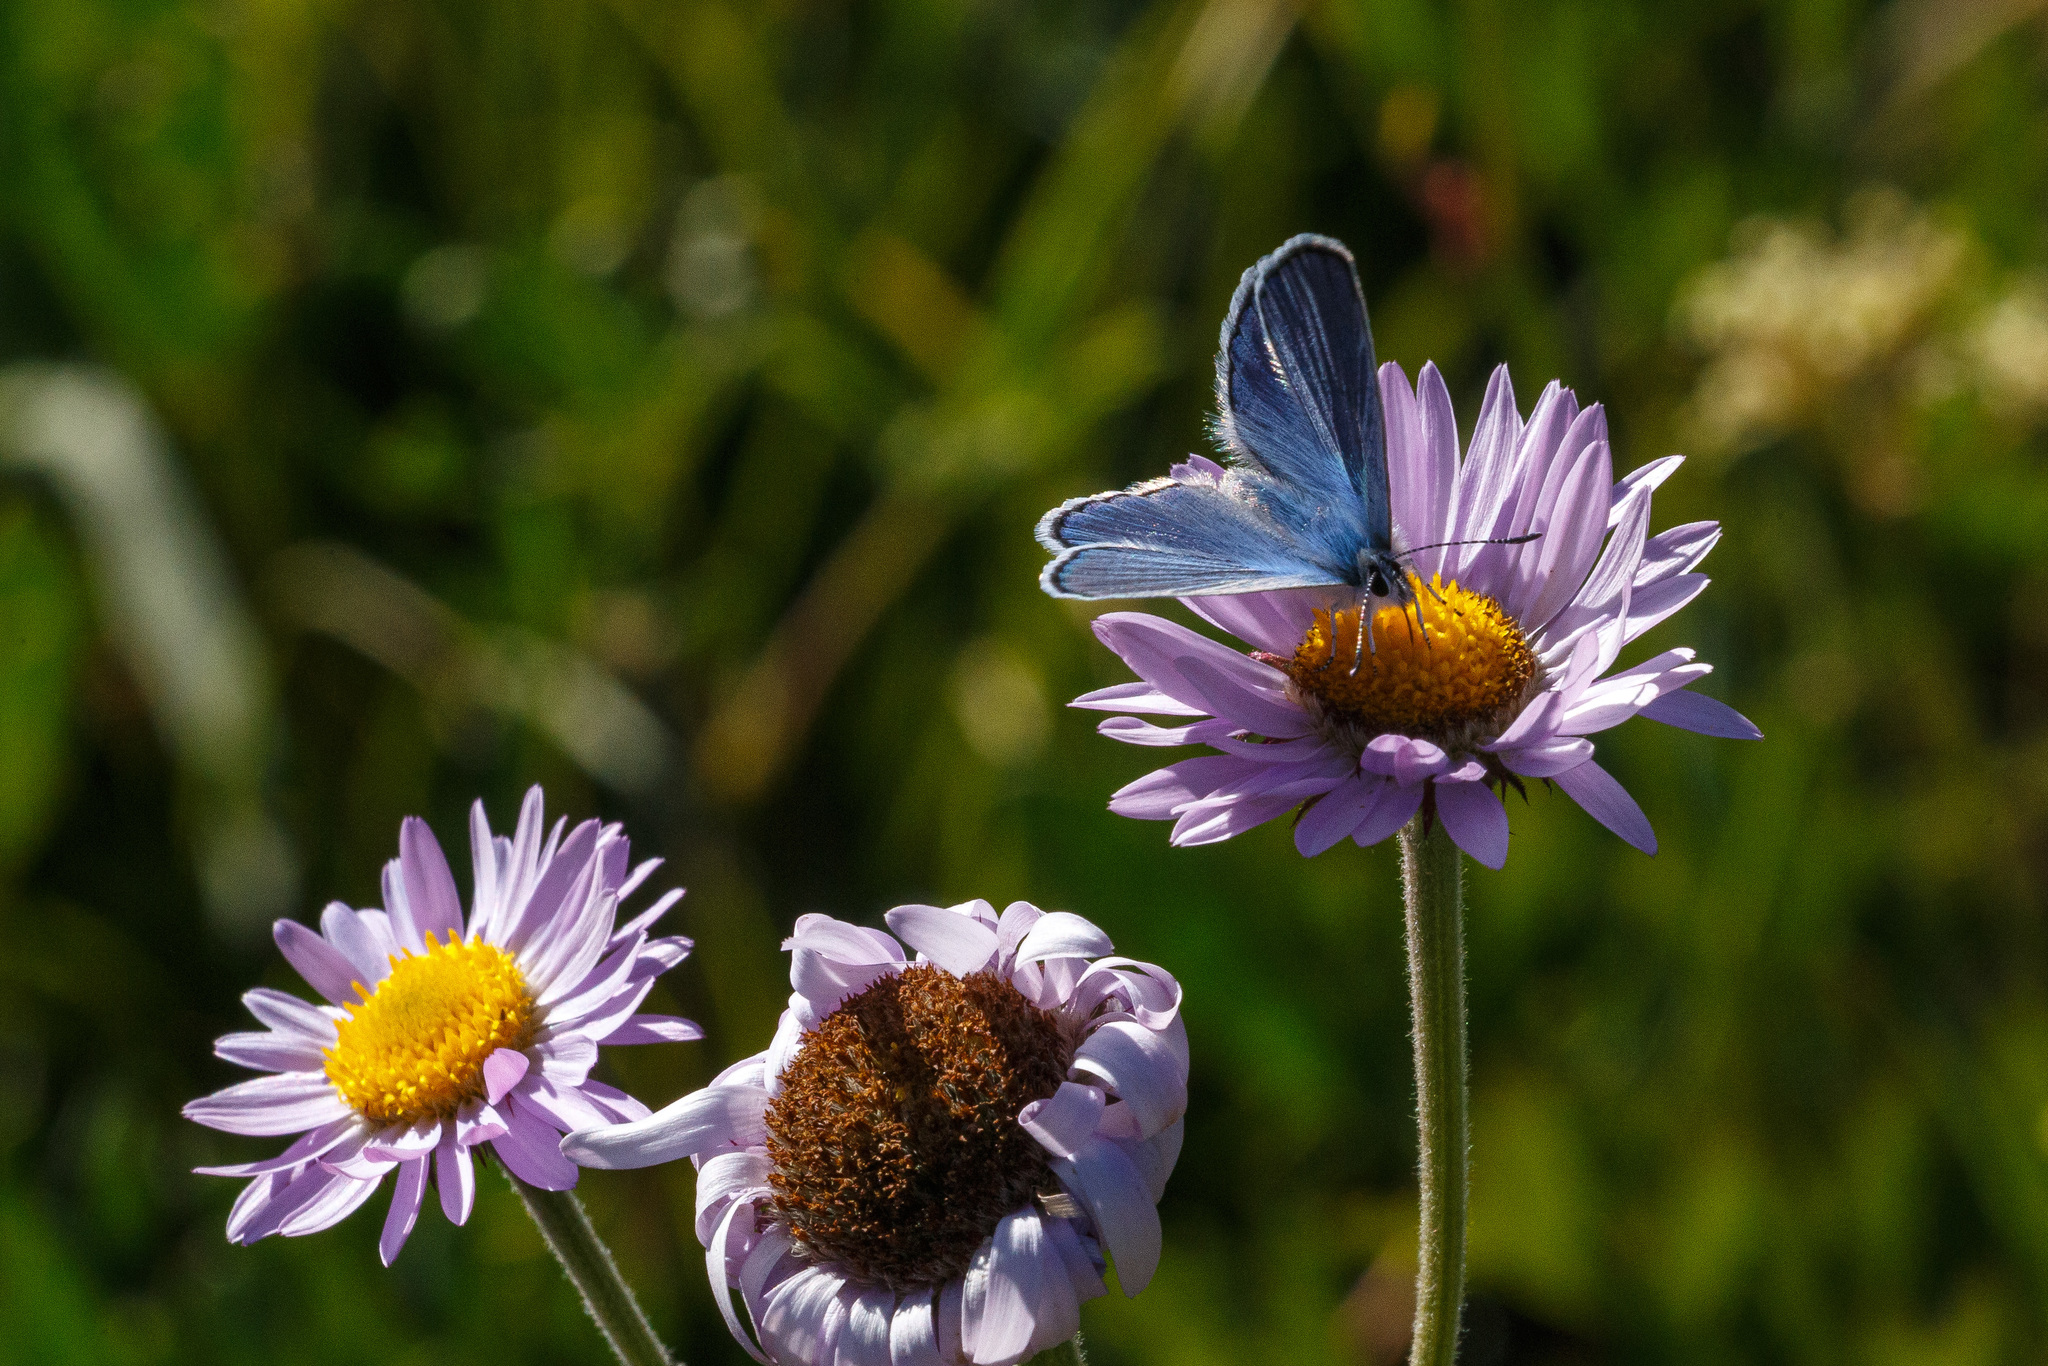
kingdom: Animalia
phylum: Arthropoda
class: Insecta
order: Lepidoptera
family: Lycaenidae
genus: Lycaeides
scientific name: Lycaeides anna
